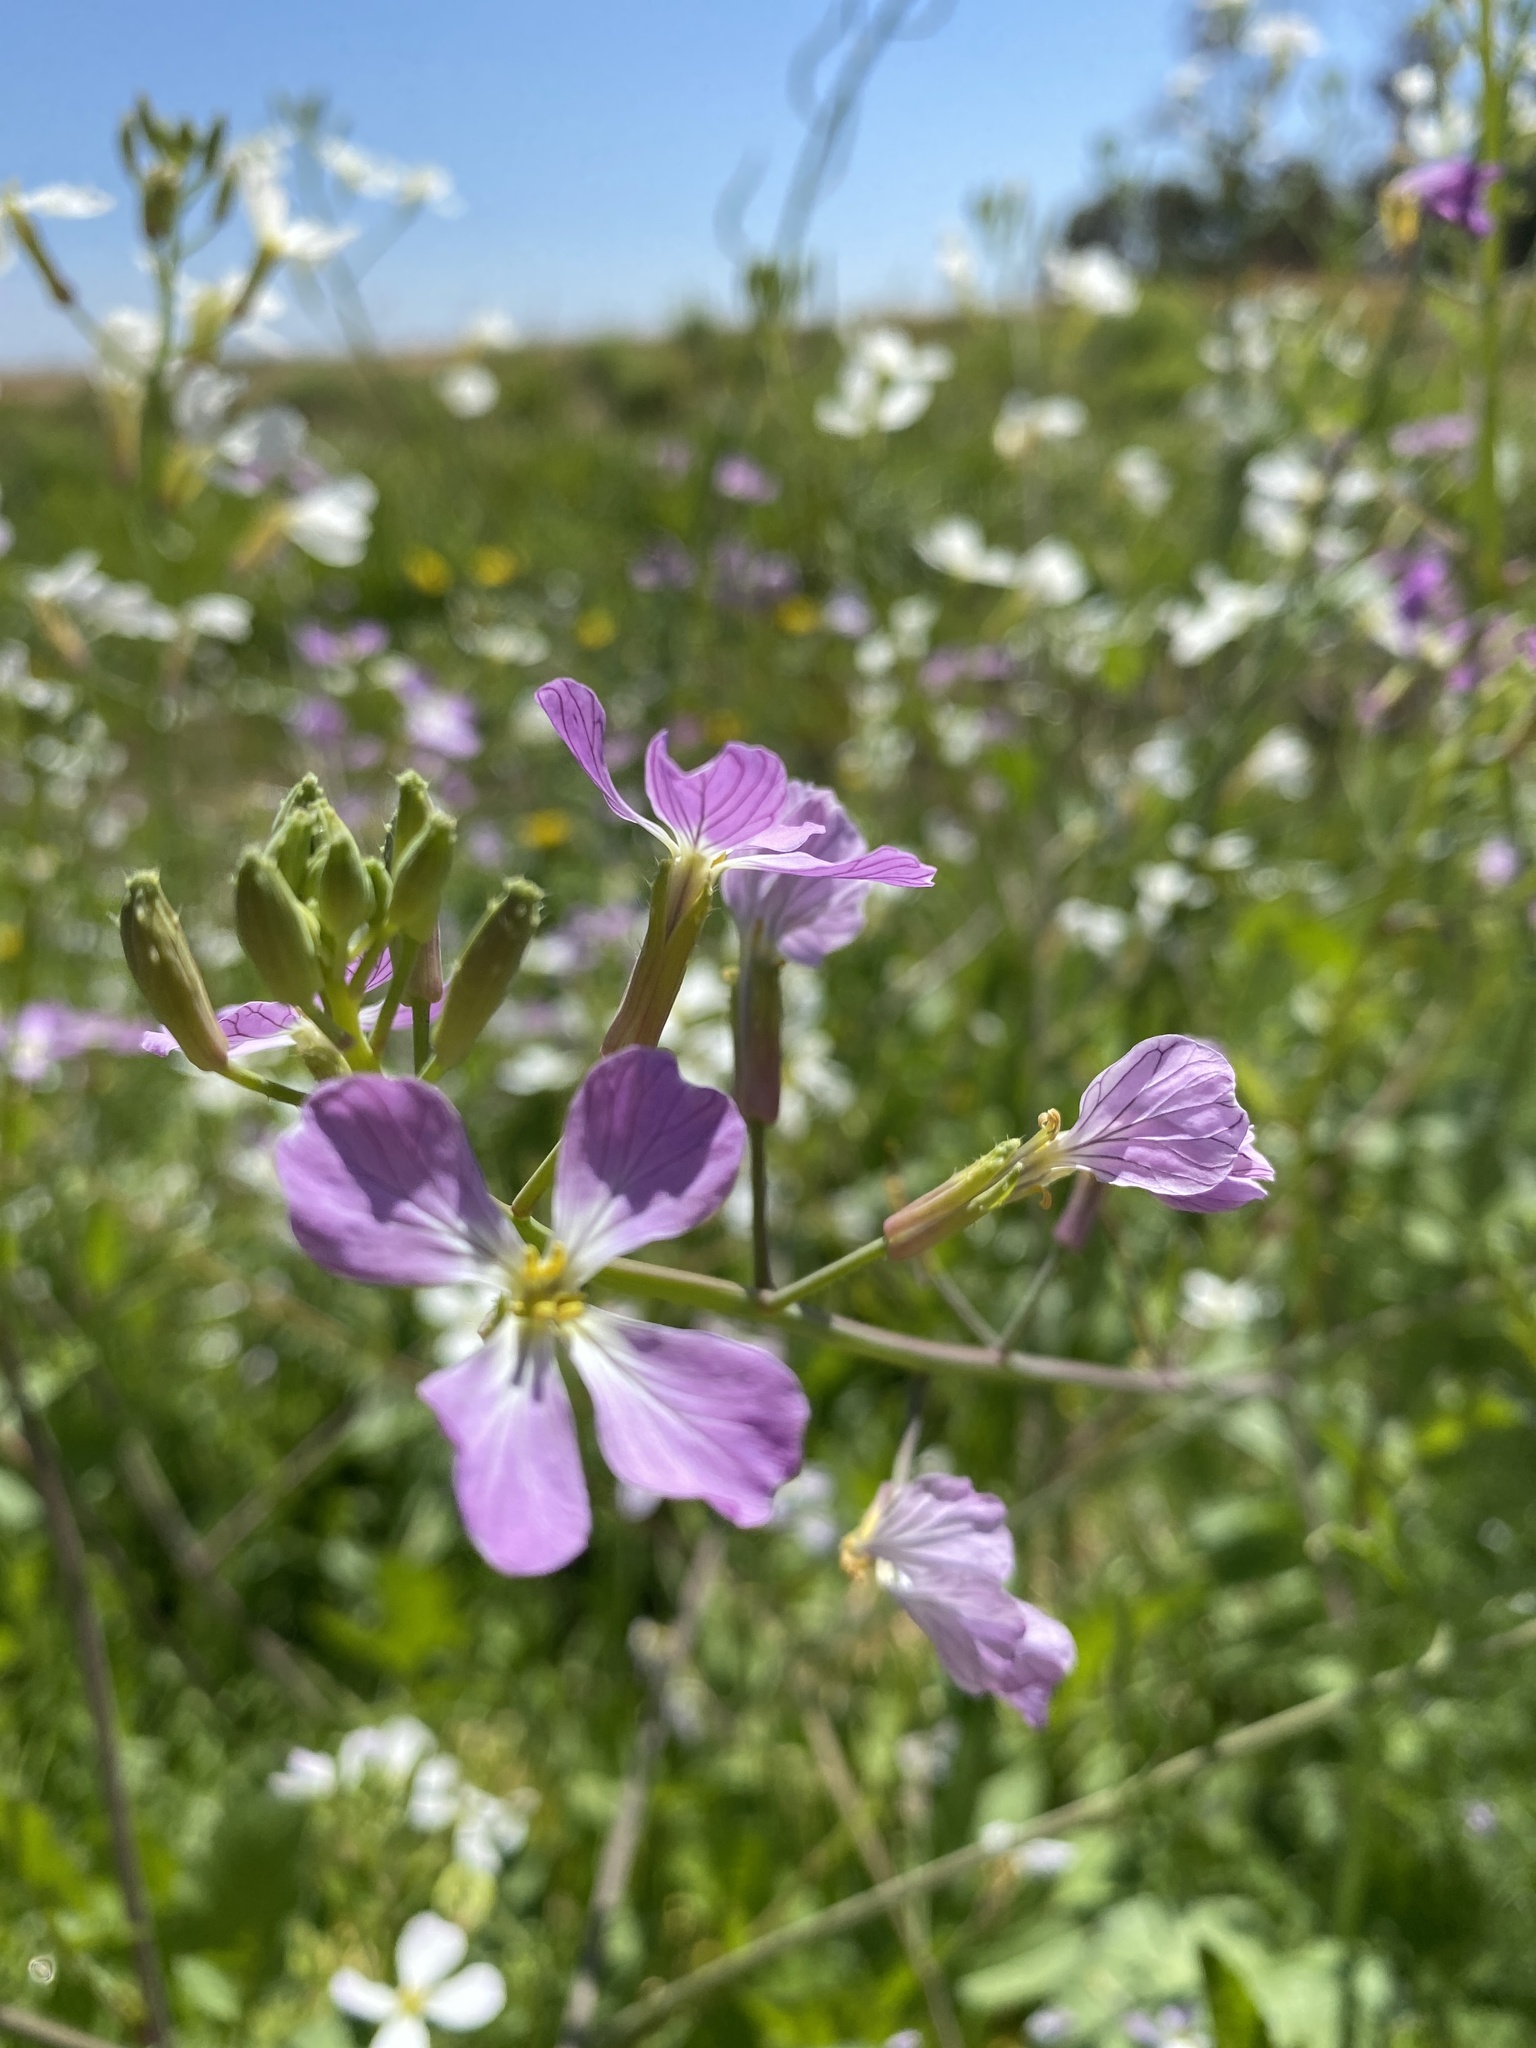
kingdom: Plantae
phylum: Tracheophyta
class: Magnoliopsida
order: Brassicales
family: Brassicaceae
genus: Raphanus
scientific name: Raphanus sativus
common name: Cultivated radish
